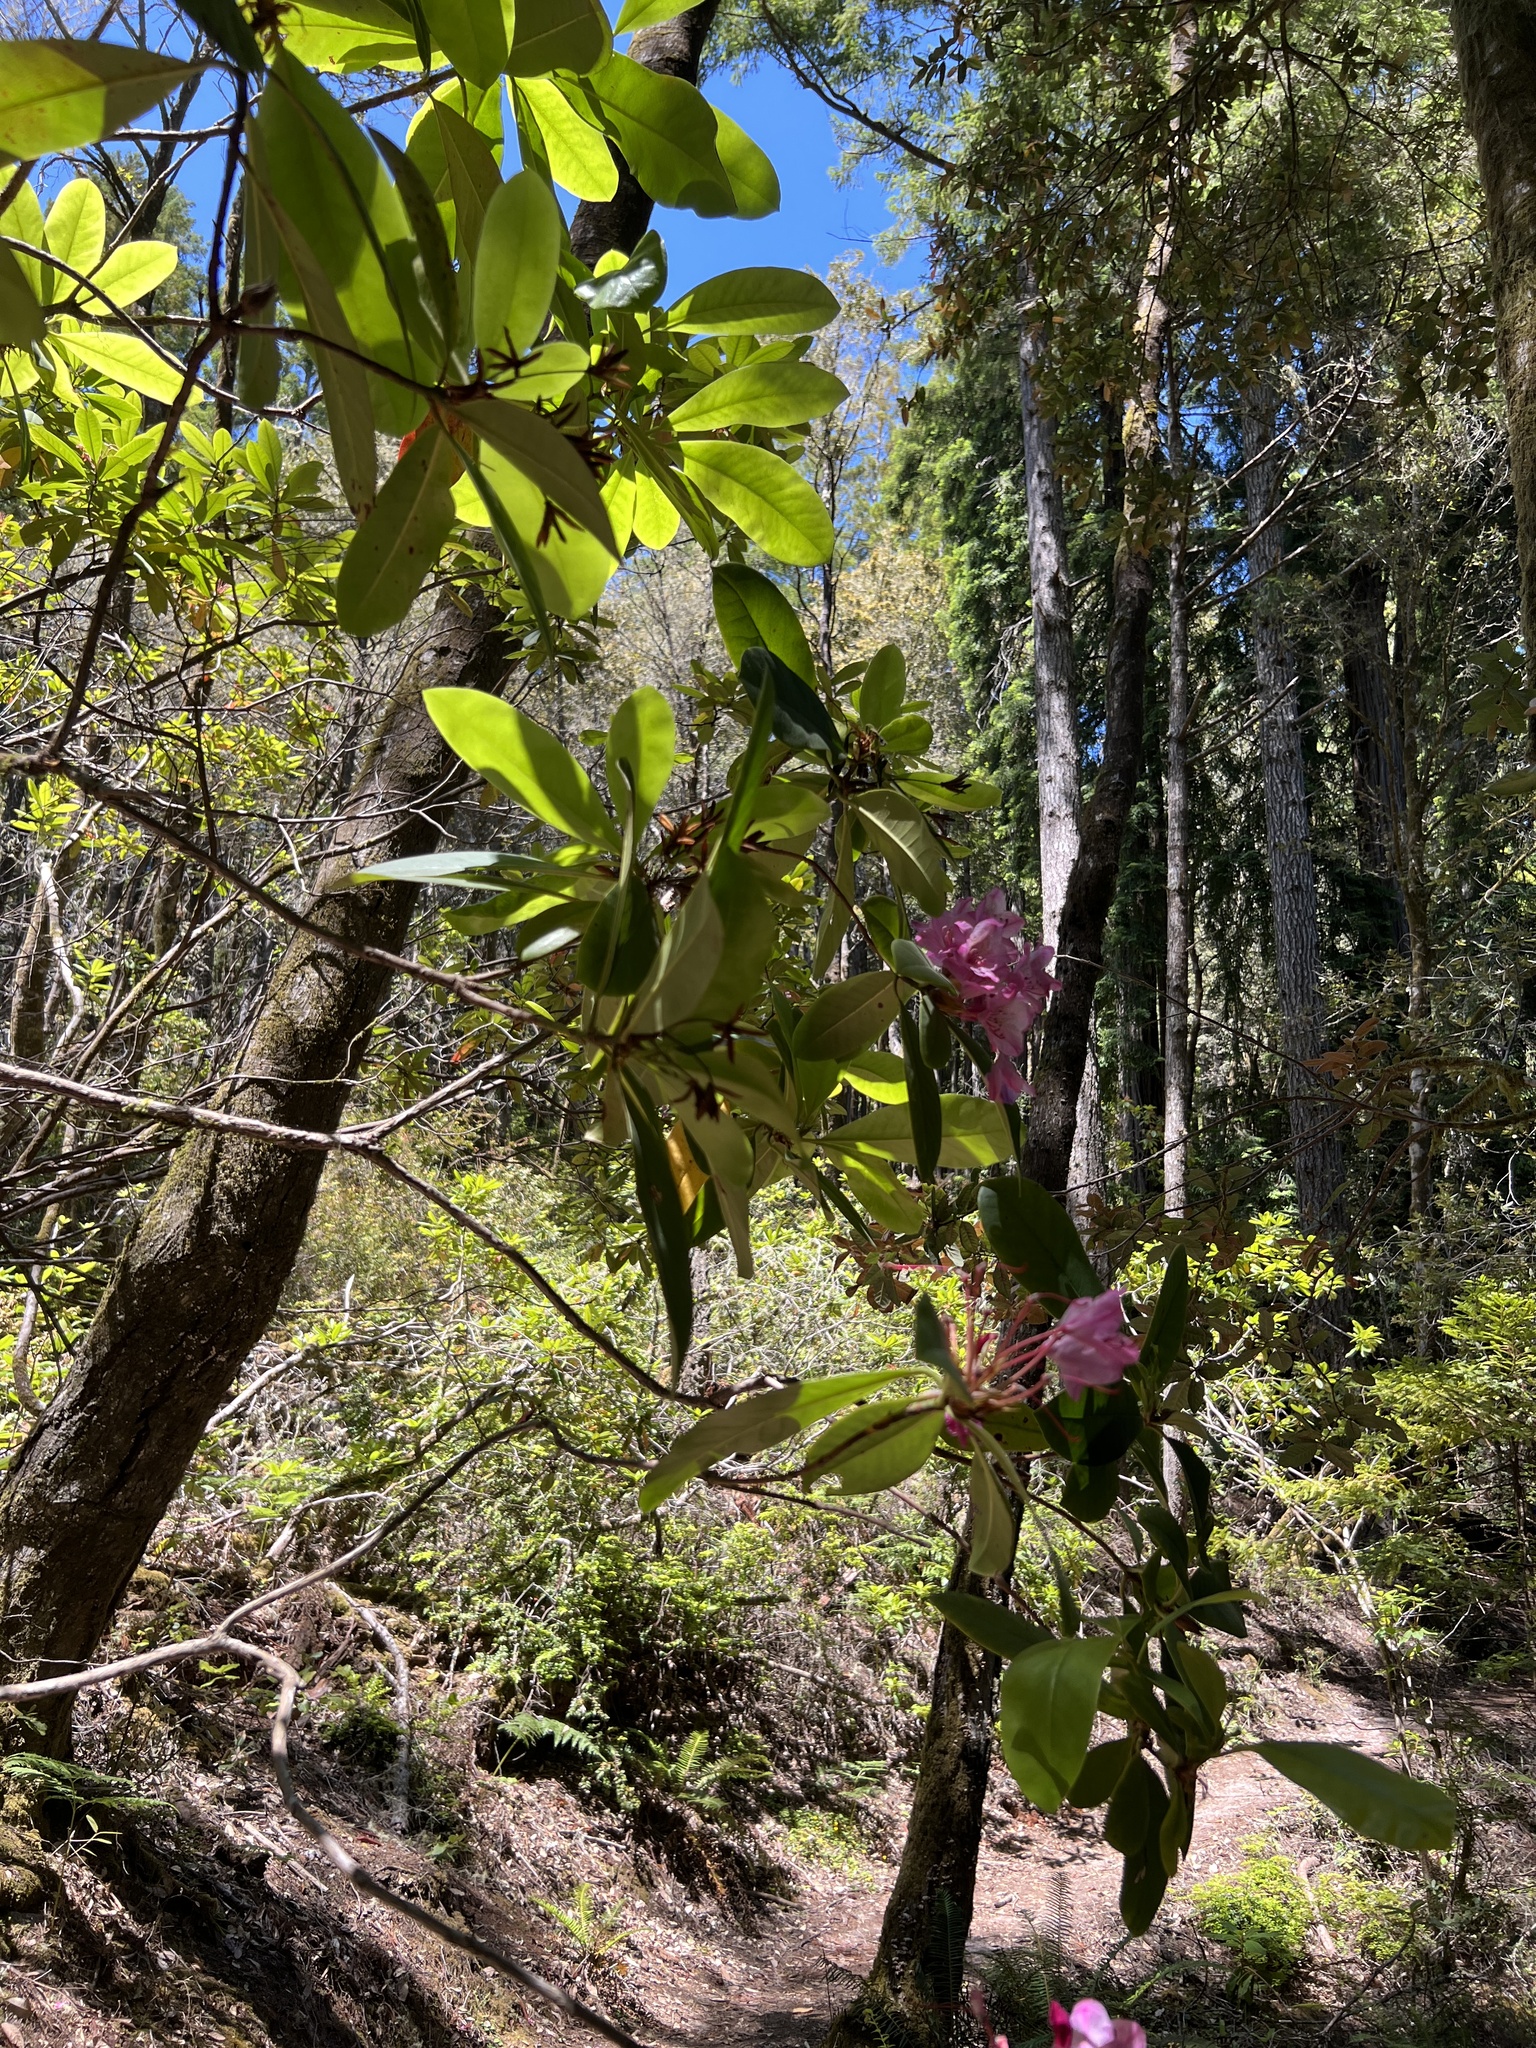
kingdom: Plantae
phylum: Tracheophyta
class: Magnoliopsida
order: Ericales
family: Ericaceae
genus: Rhododendron
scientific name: Rhododendron macrophyllum
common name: California rose bay
